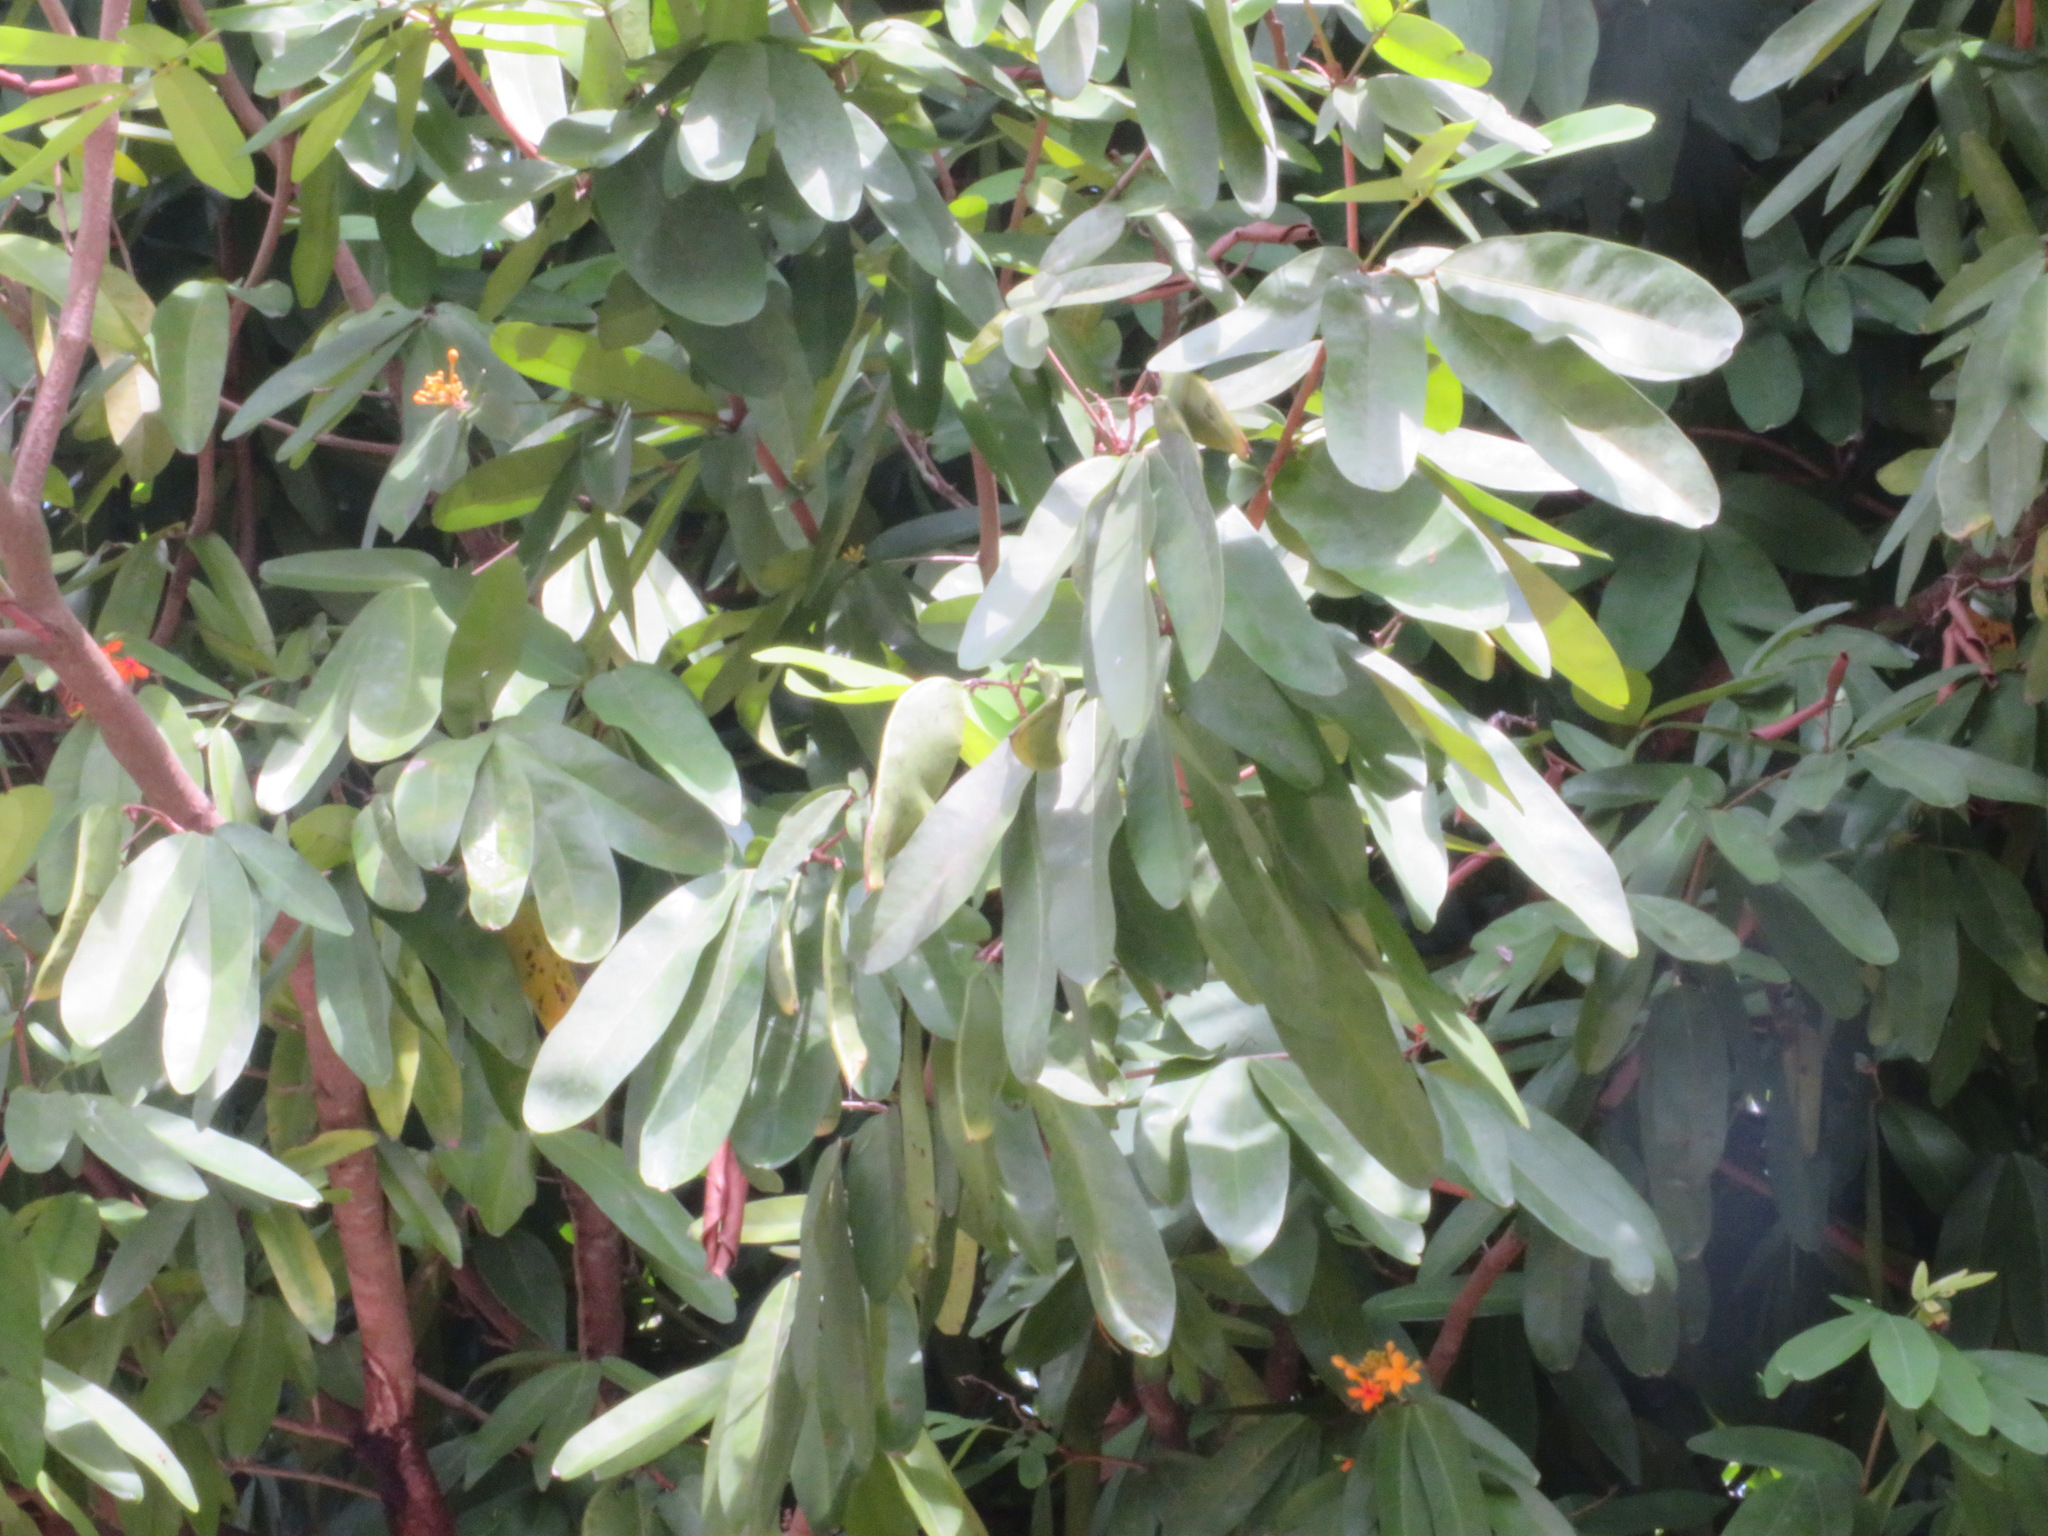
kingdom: Plantae
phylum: Tracheophyta
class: Magnoliopsida
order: Fabales
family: Fabaceae
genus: Saraca
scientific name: Saraca indica
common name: Asoka-tree
